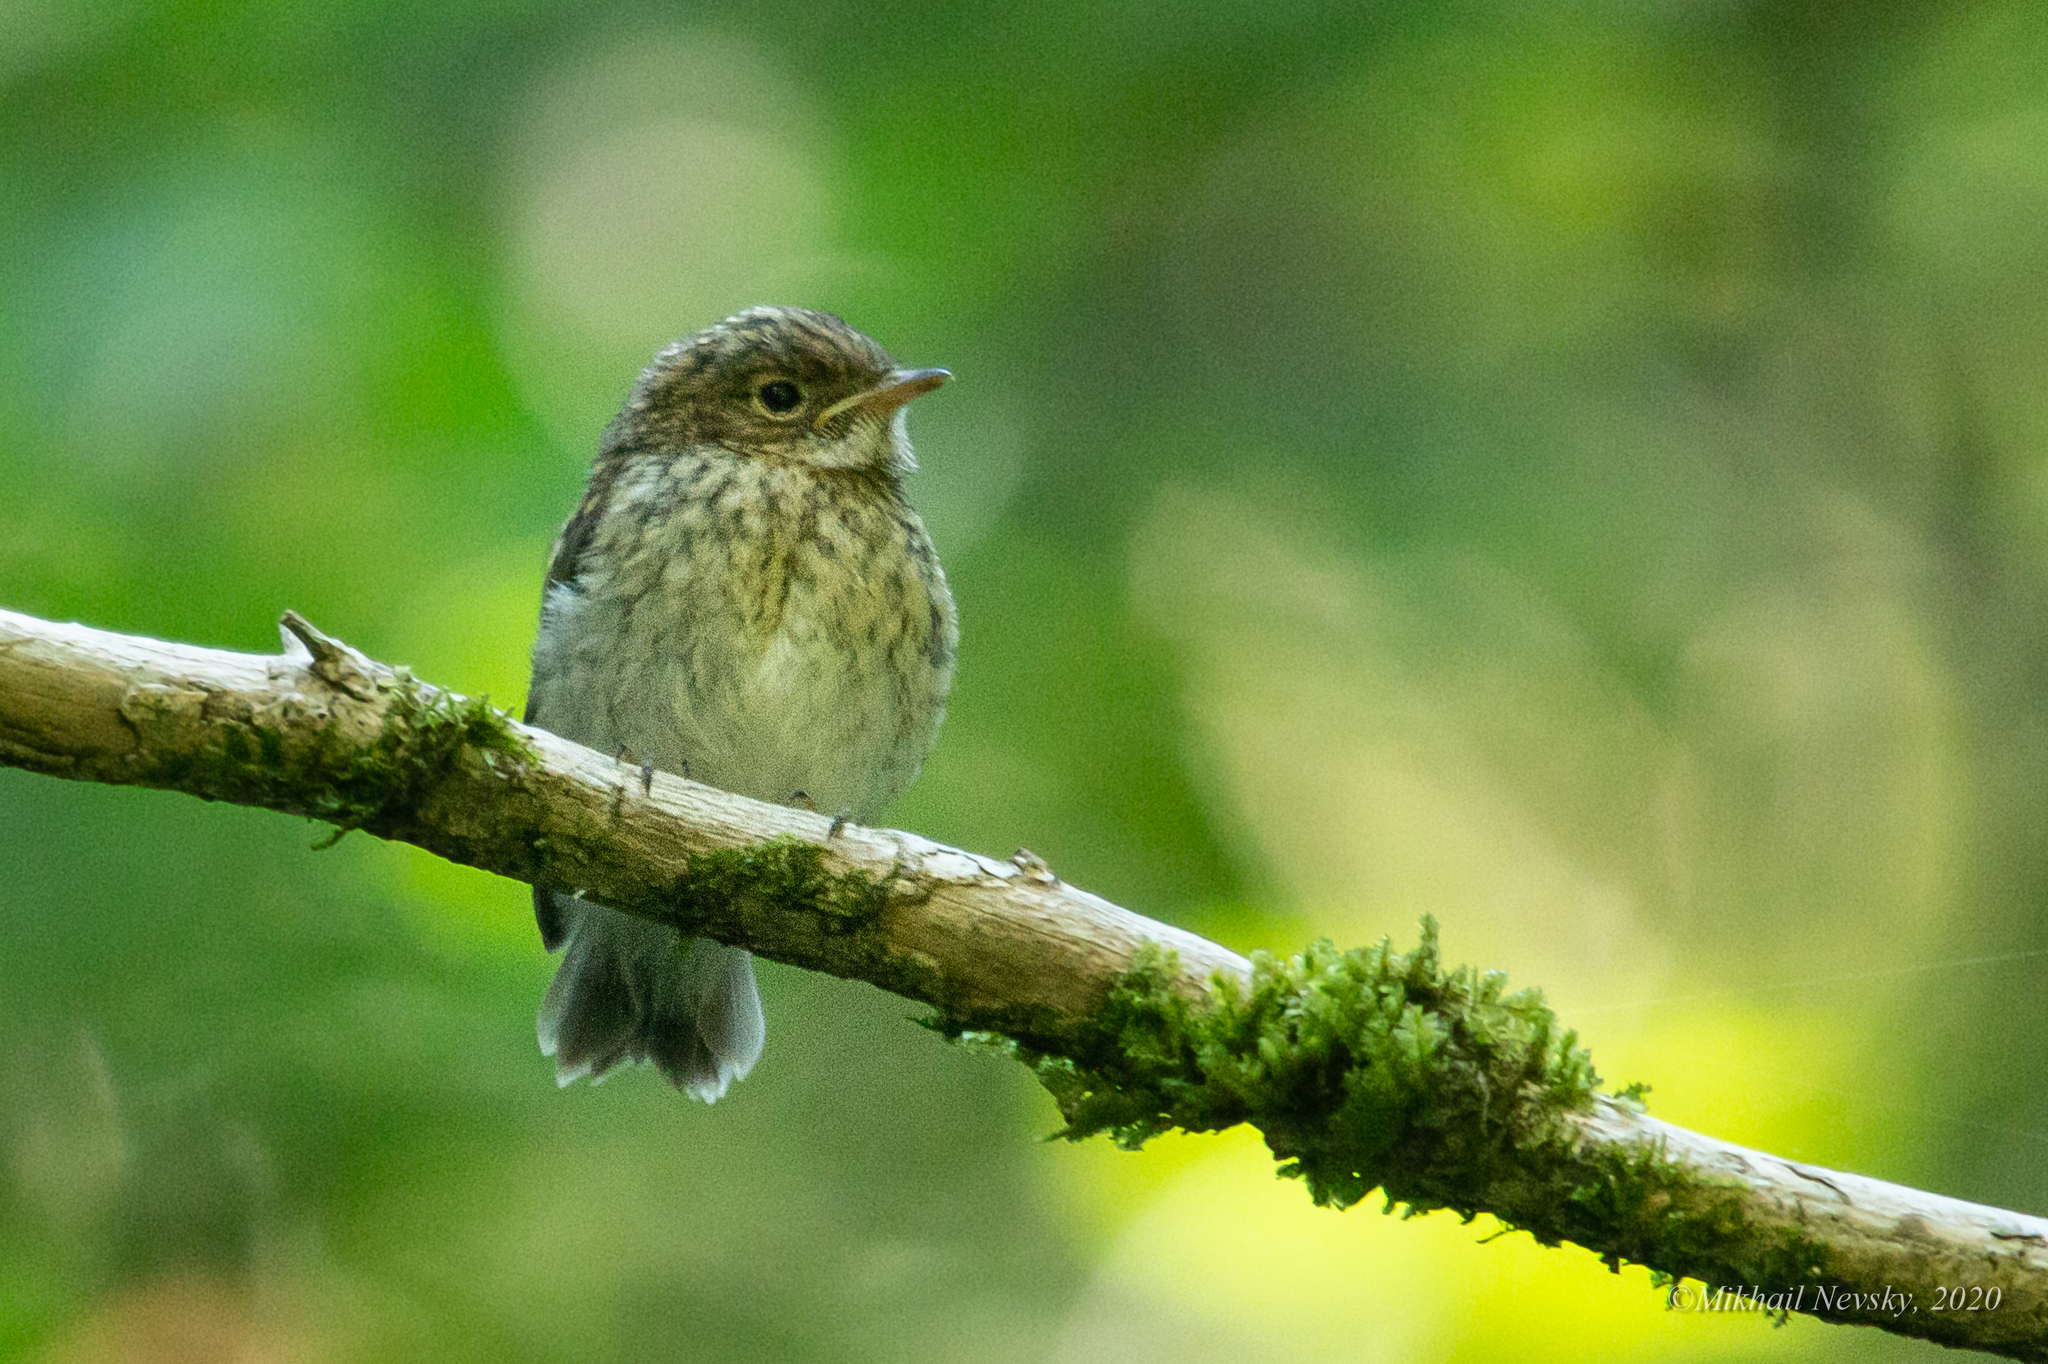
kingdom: Animalia
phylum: Chordata
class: Aves
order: Passeriformes
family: Muscicapidae
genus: Ficedula
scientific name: Ficedula parva
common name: Red-breasted flycatcher
